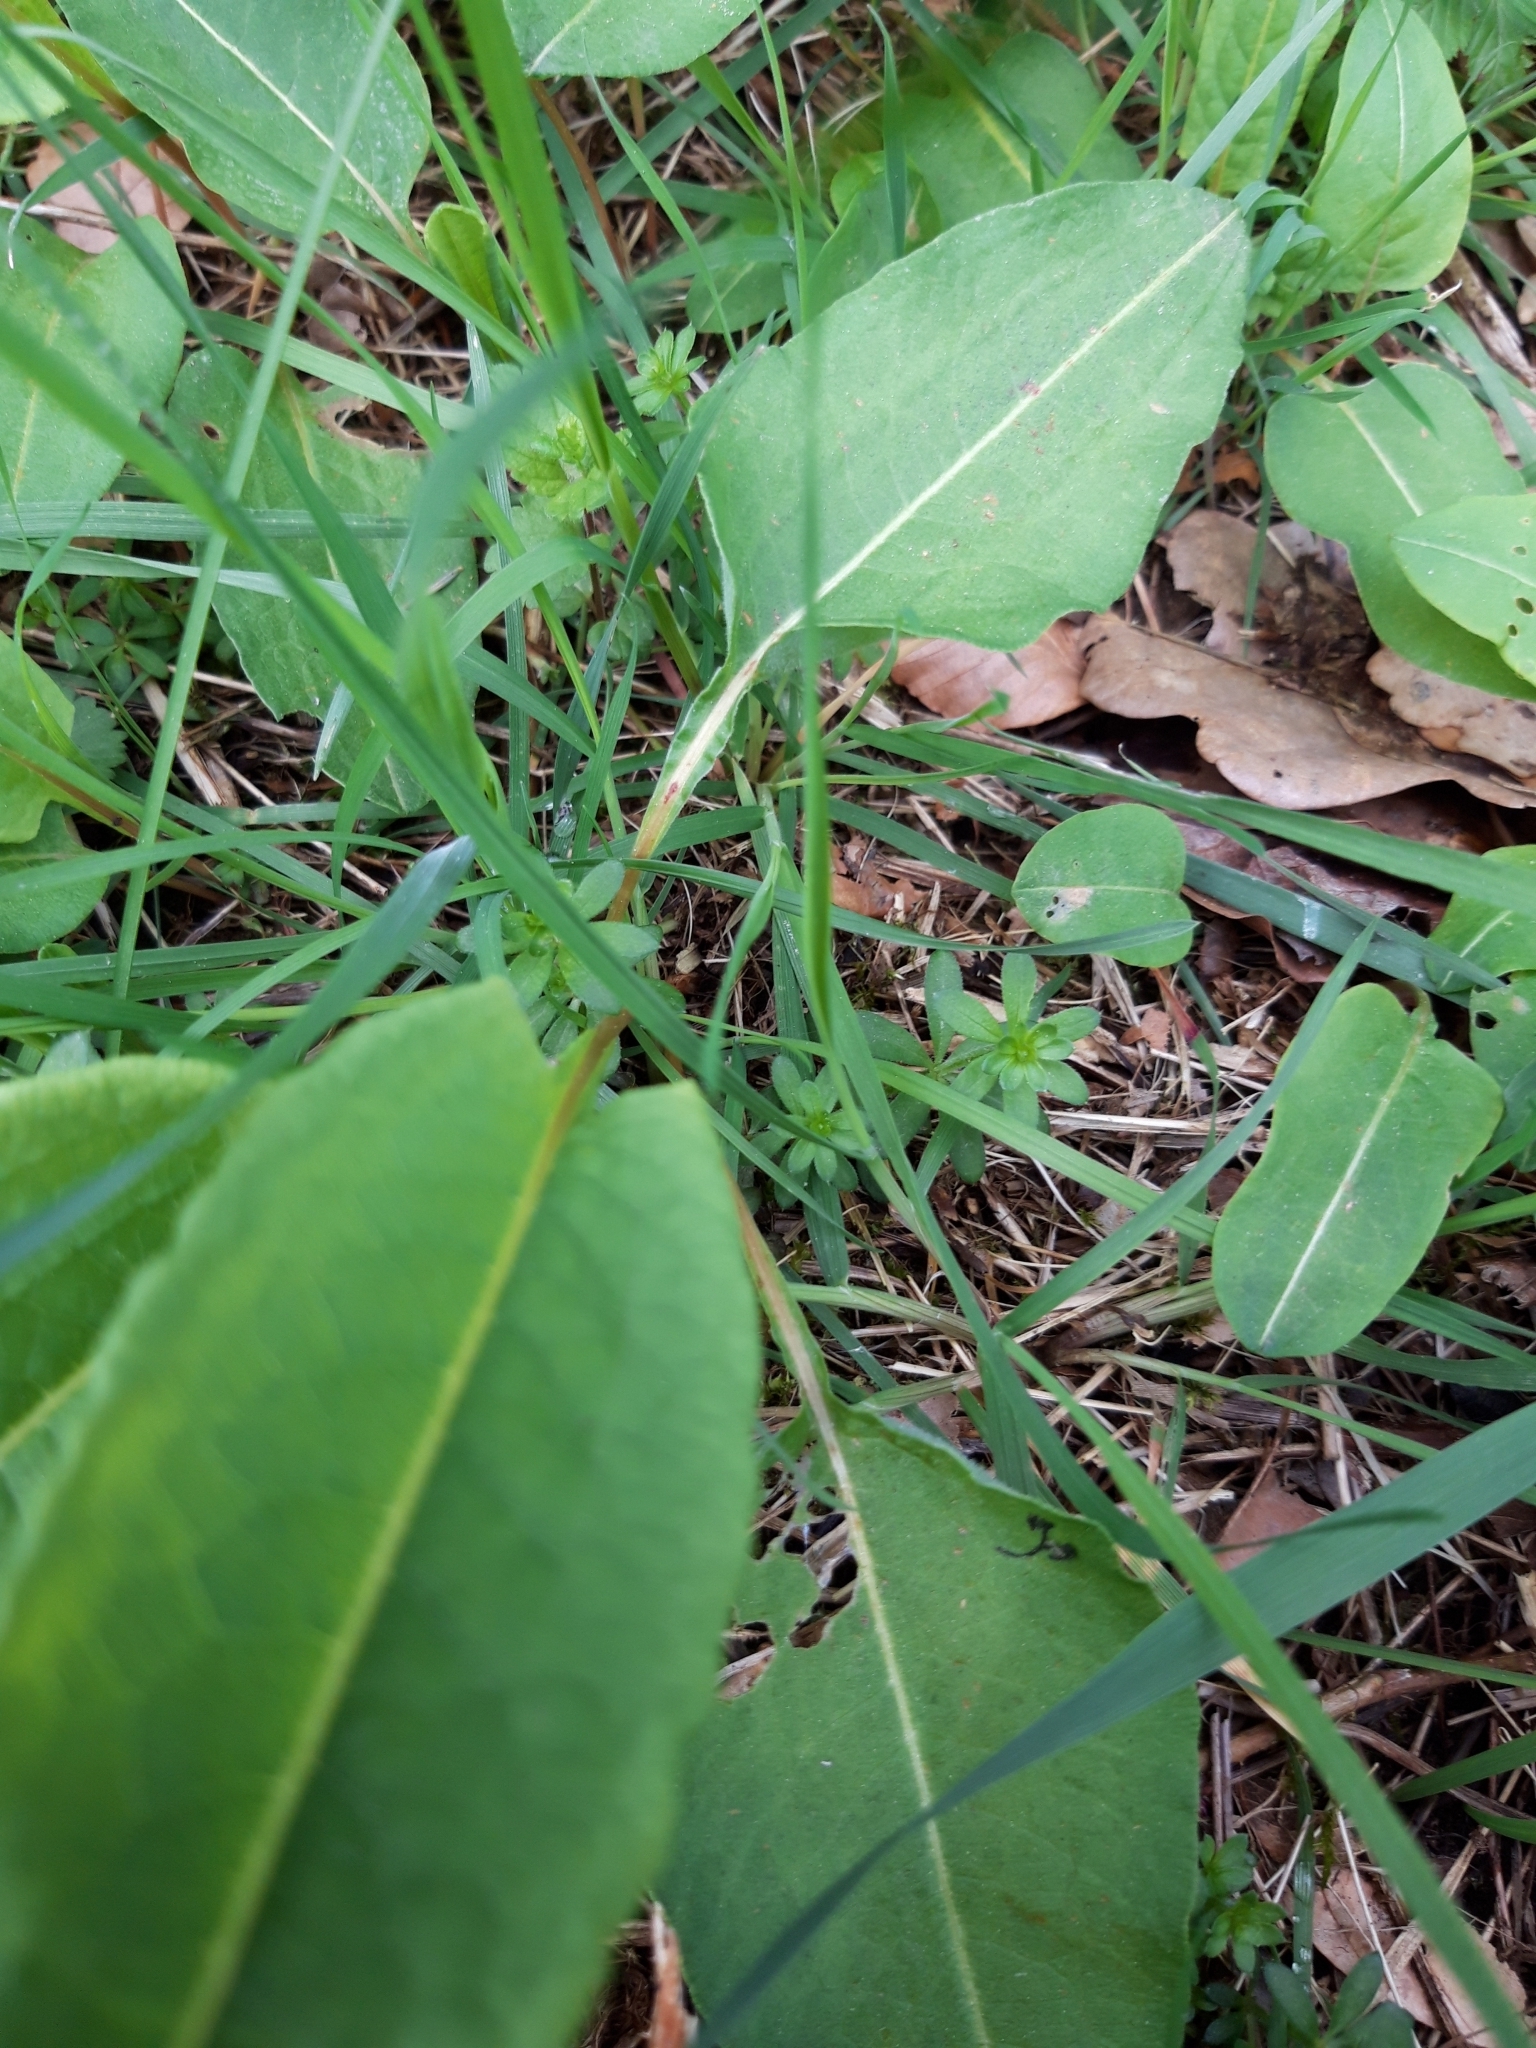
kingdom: Plantae
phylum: Tracheophyta
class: Magnoliopsida
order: Caryophyllales
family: Polygonaceae
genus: Bistorta
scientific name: Bistorta officinalis
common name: Common bistort
